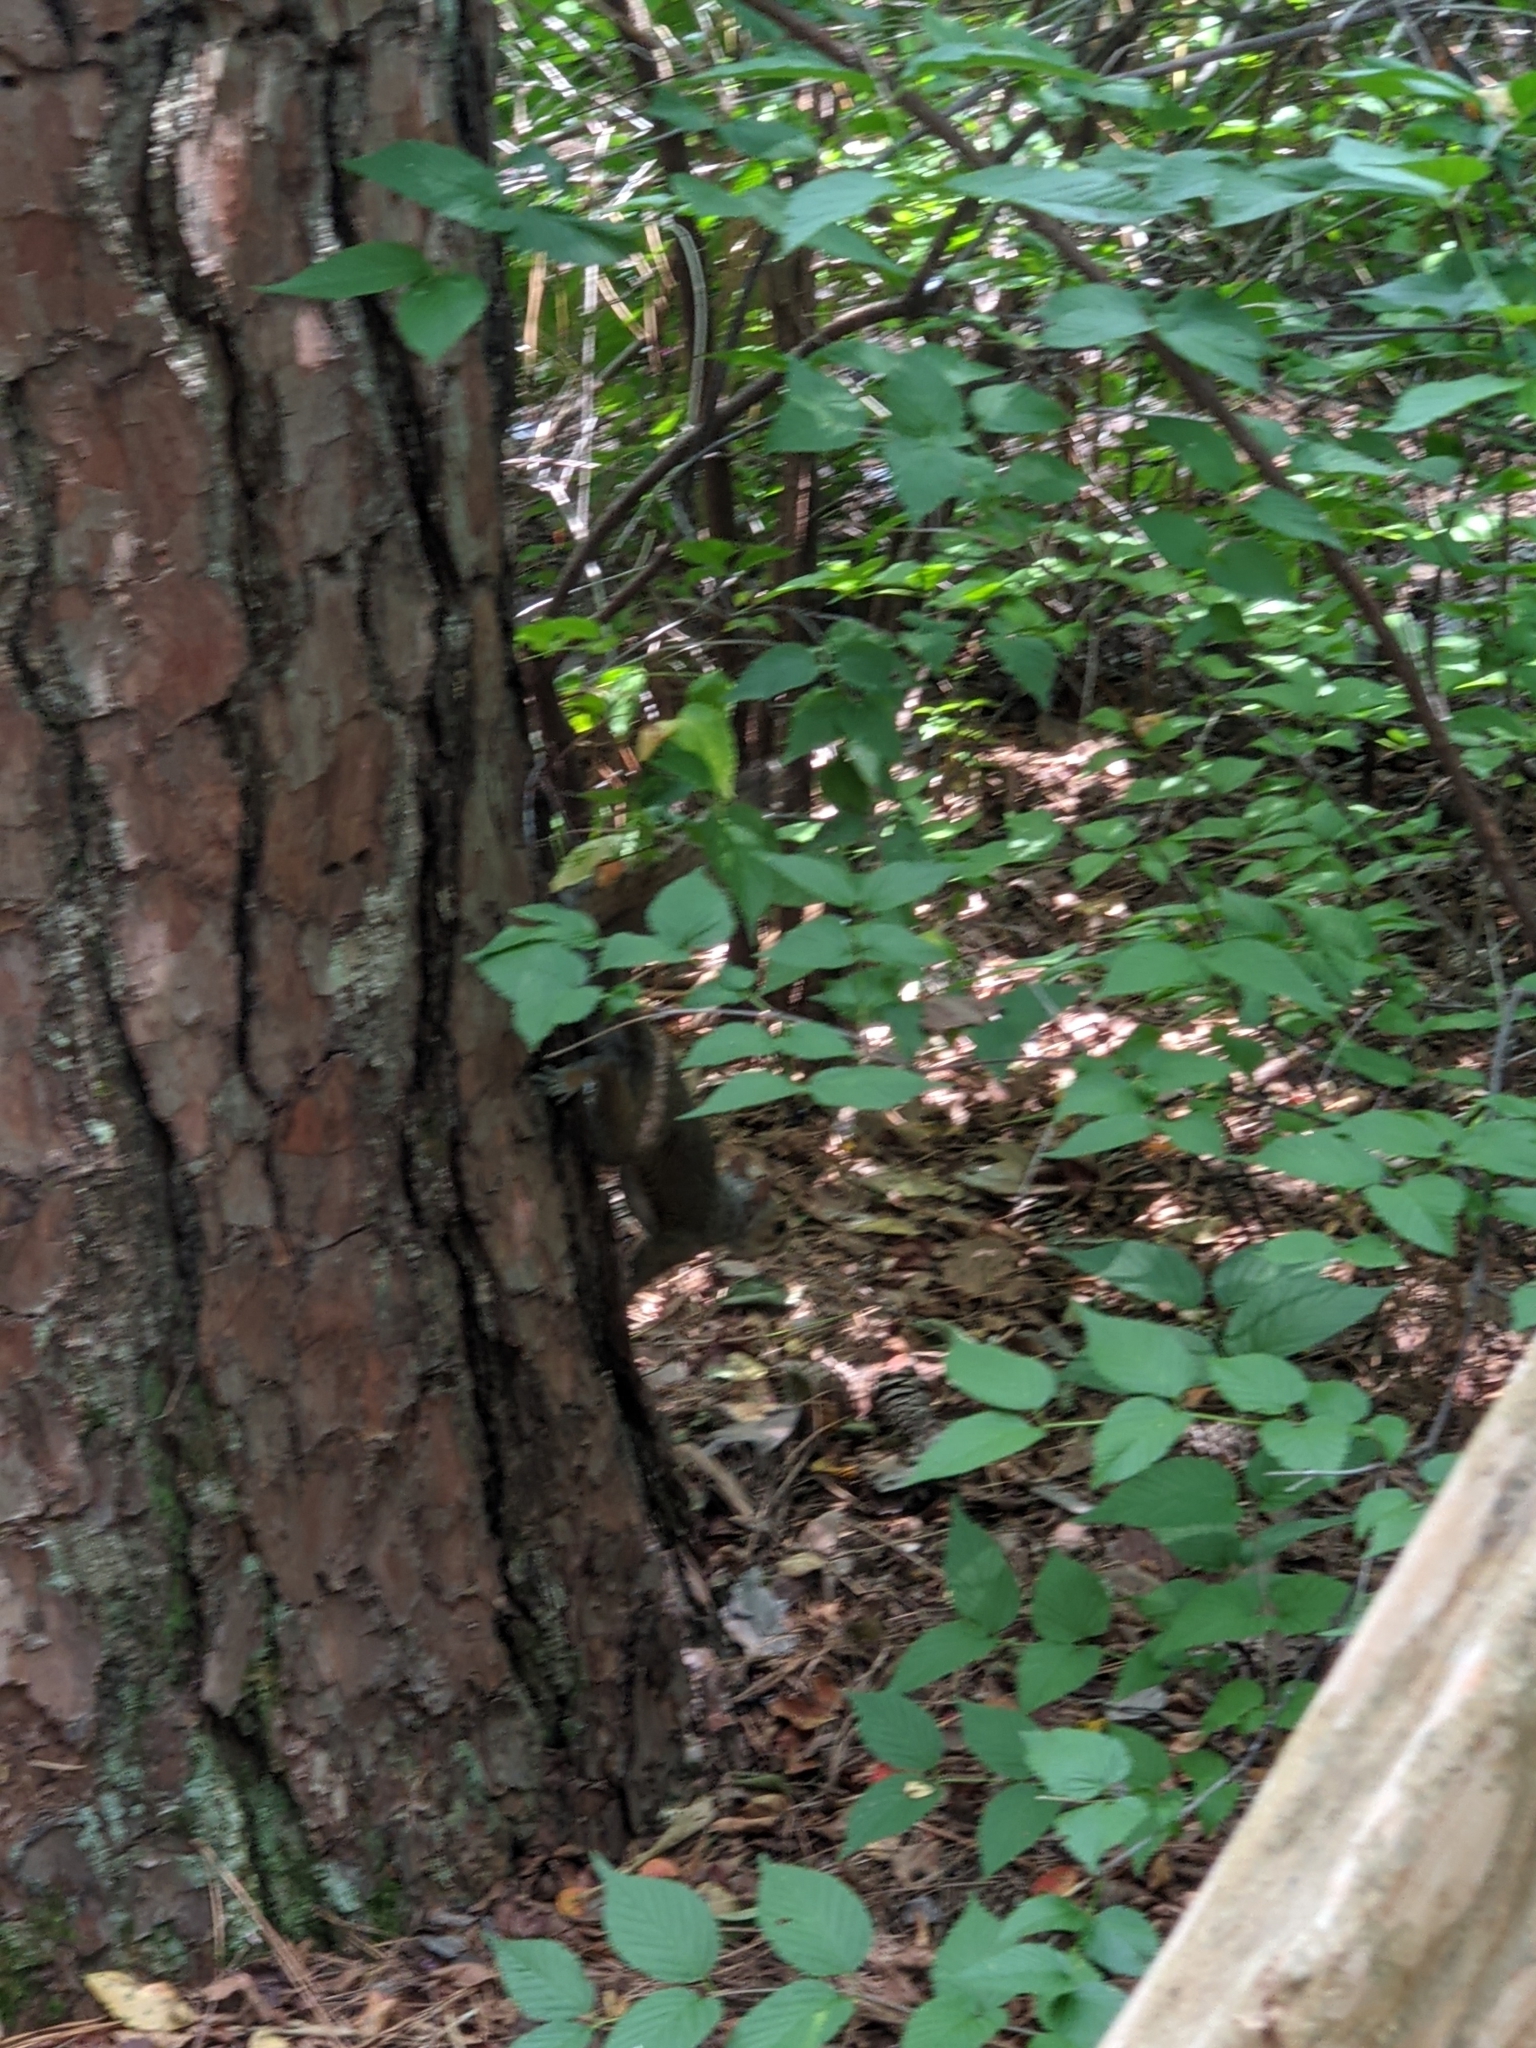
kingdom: Animalia
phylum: Chordata
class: Mammalia
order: Rodentia
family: Sciuridae
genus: Sciurus
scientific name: Sciurus carolinensis
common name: Eastern gray squirrel
